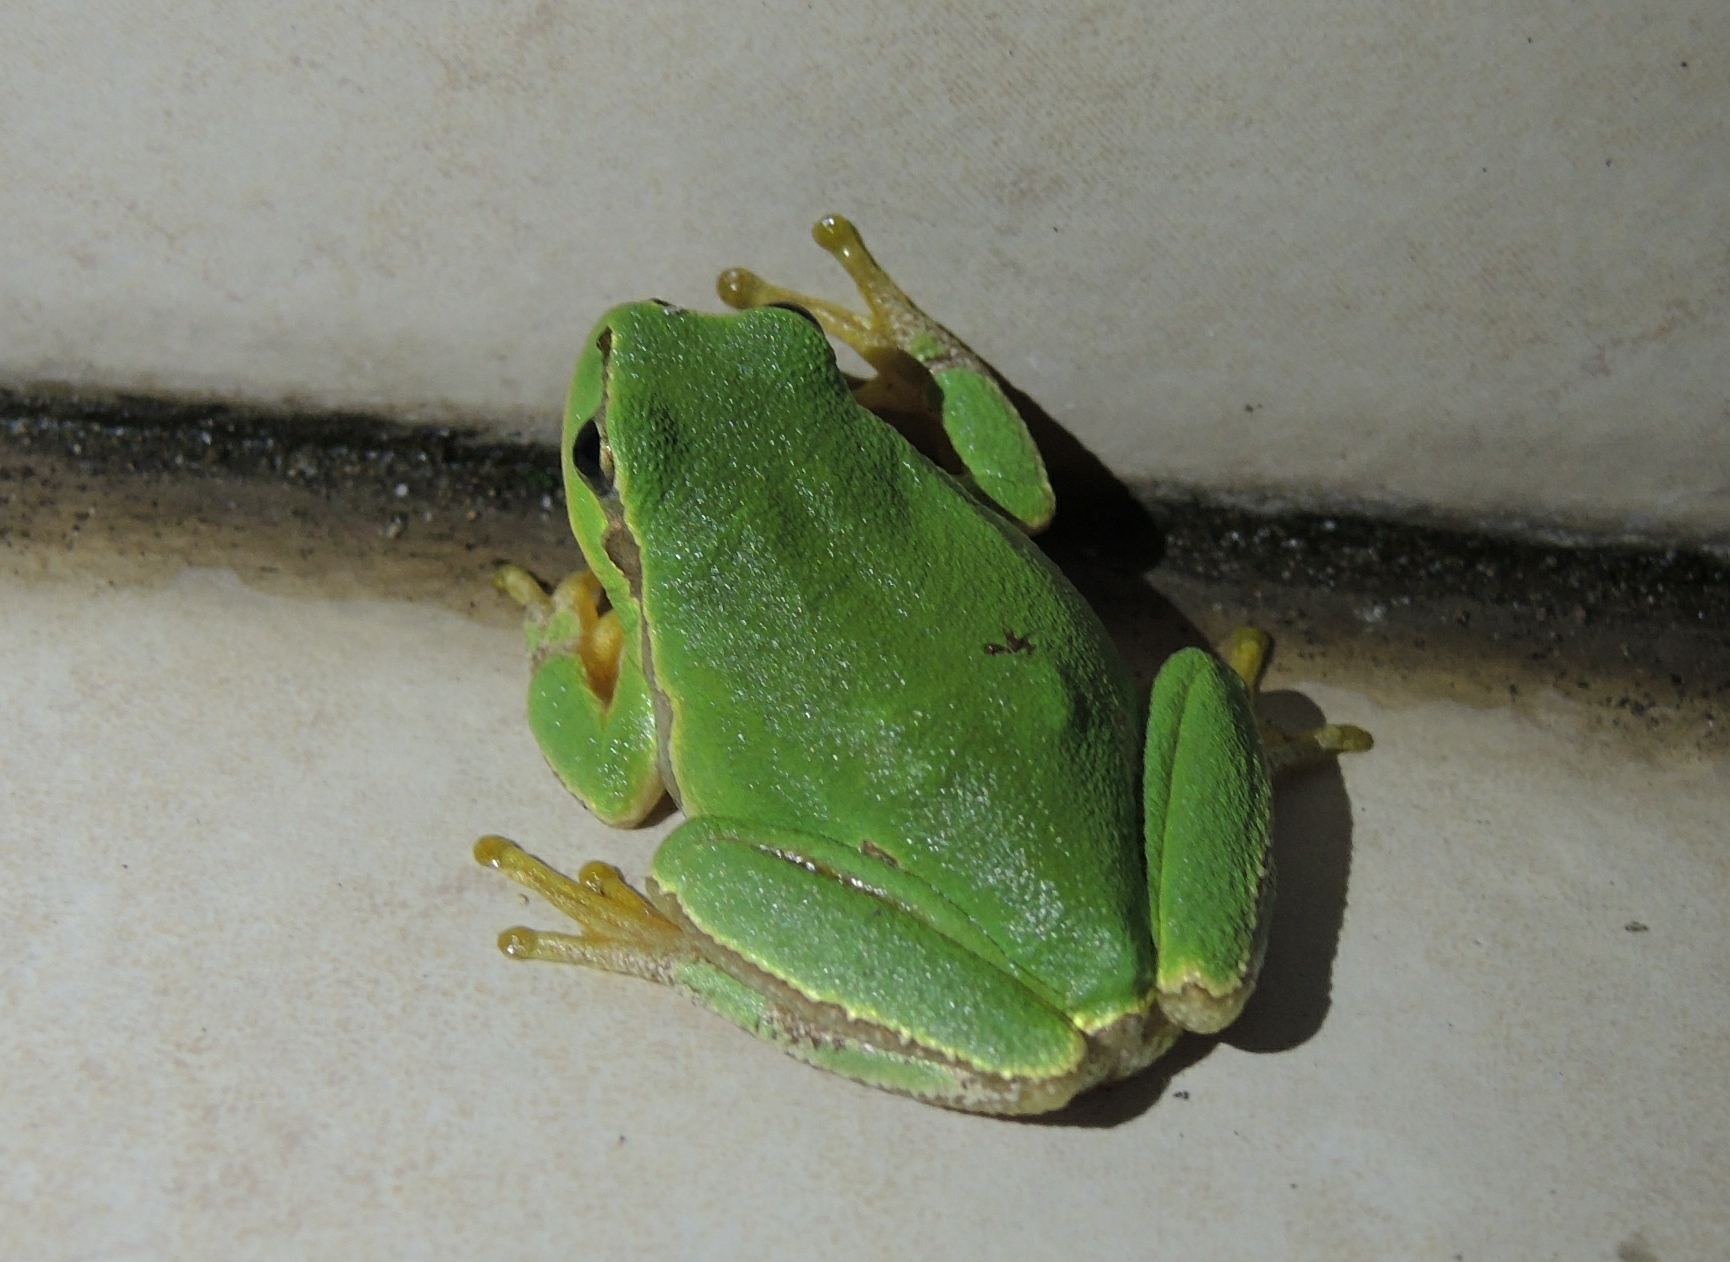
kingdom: Animalia
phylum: Chordata
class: Amphibia
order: Anura
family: Hylidae
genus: Hyla
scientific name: Hyla orientalis
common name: Caucasian treefrog
